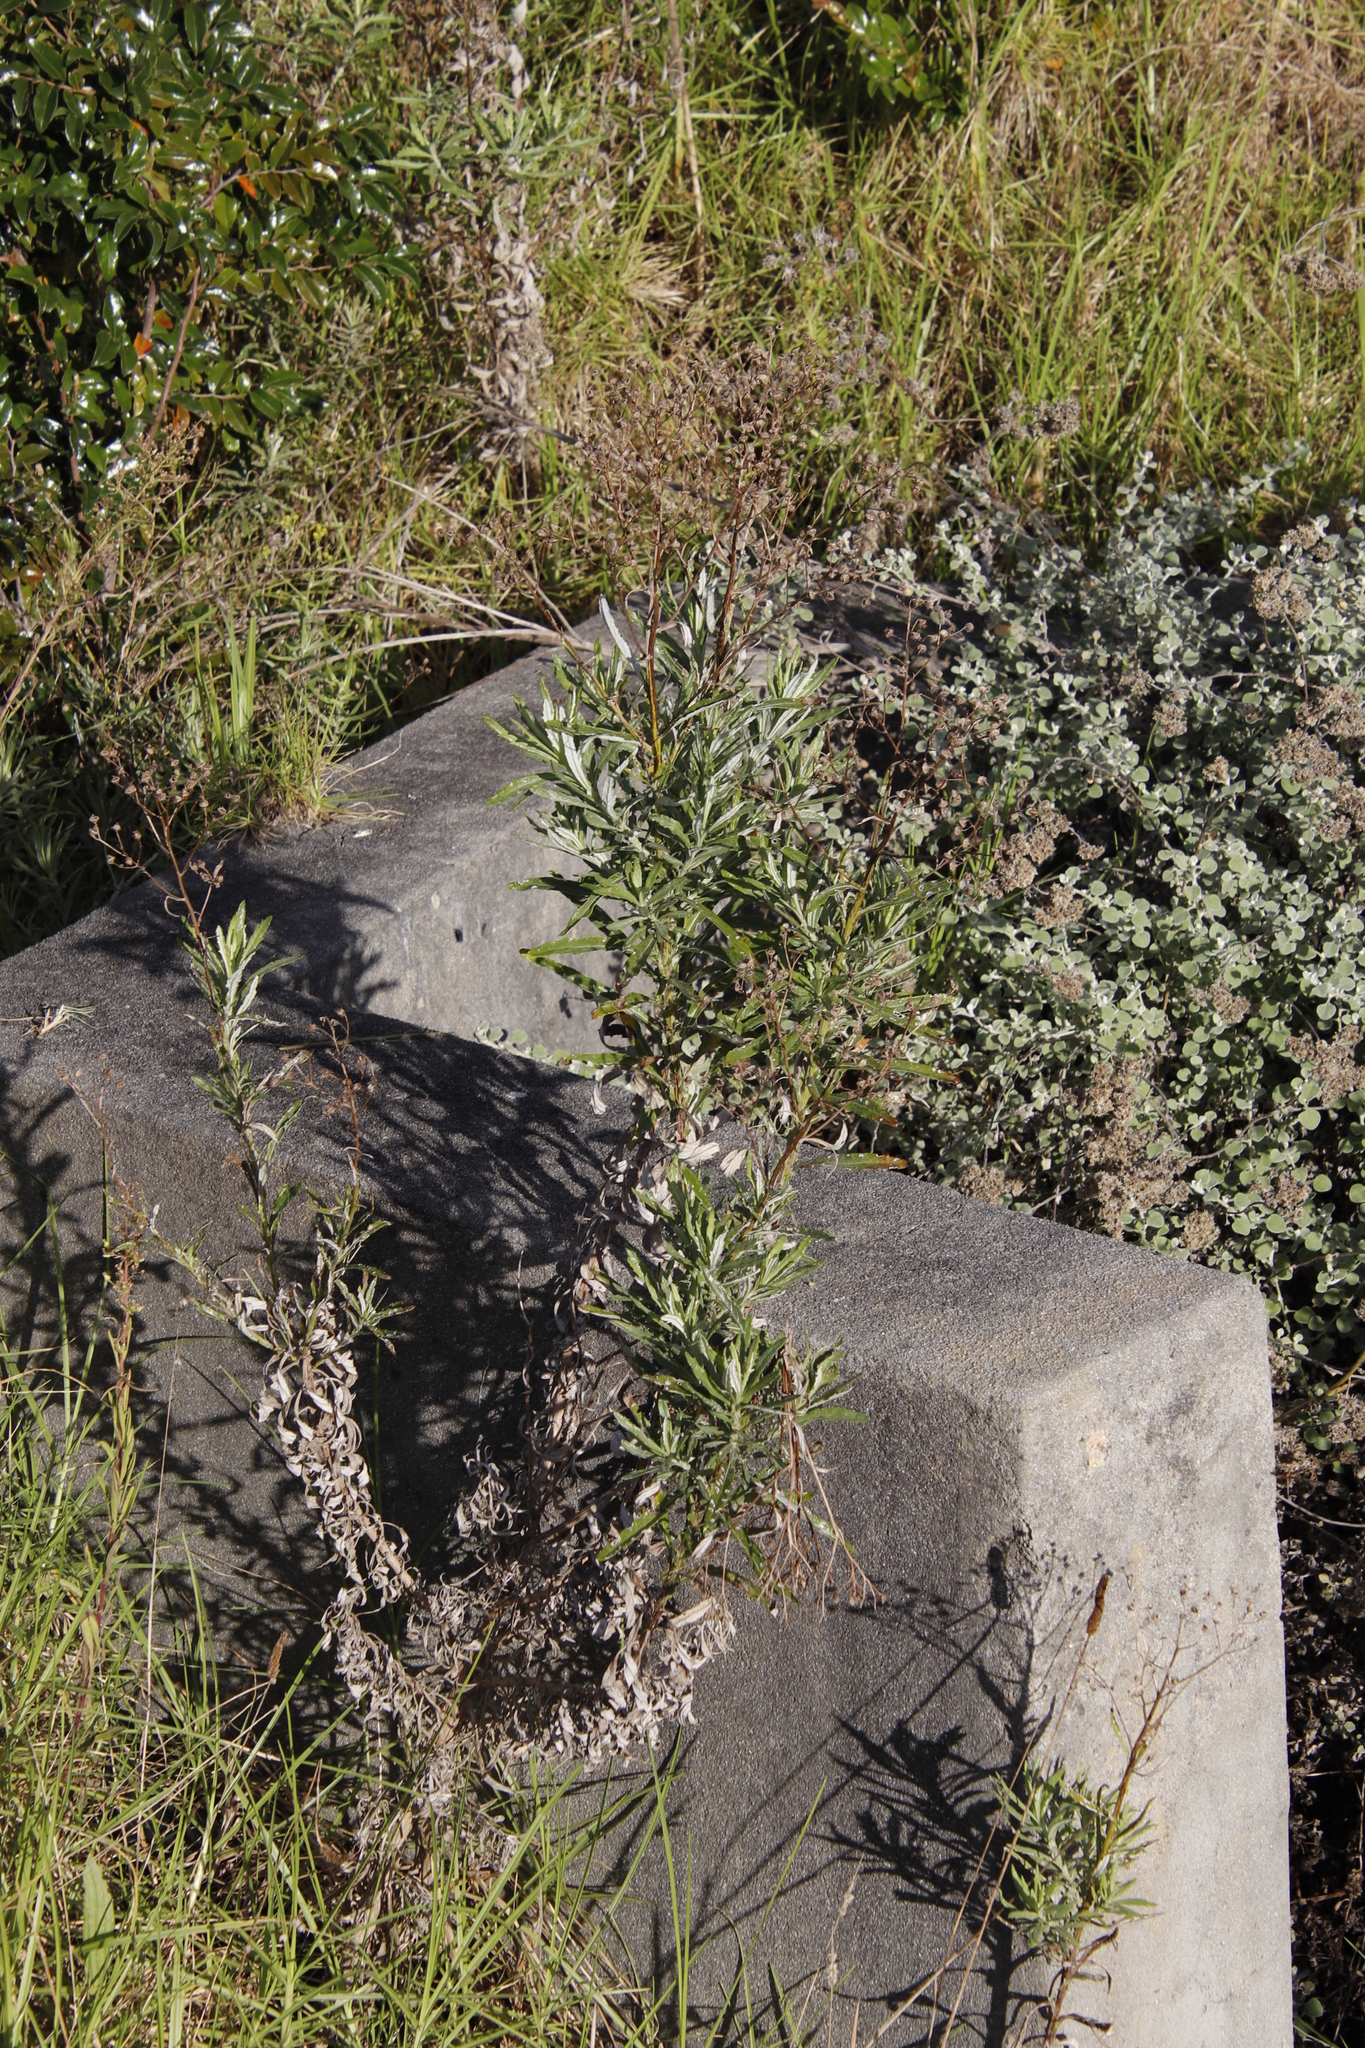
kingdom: Plantae
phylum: Tracheophyta
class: Magnoliopsida
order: Asterales
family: Asteraceae
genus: Senecio
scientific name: Senecio pterophorus
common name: Shoddy ragwort
